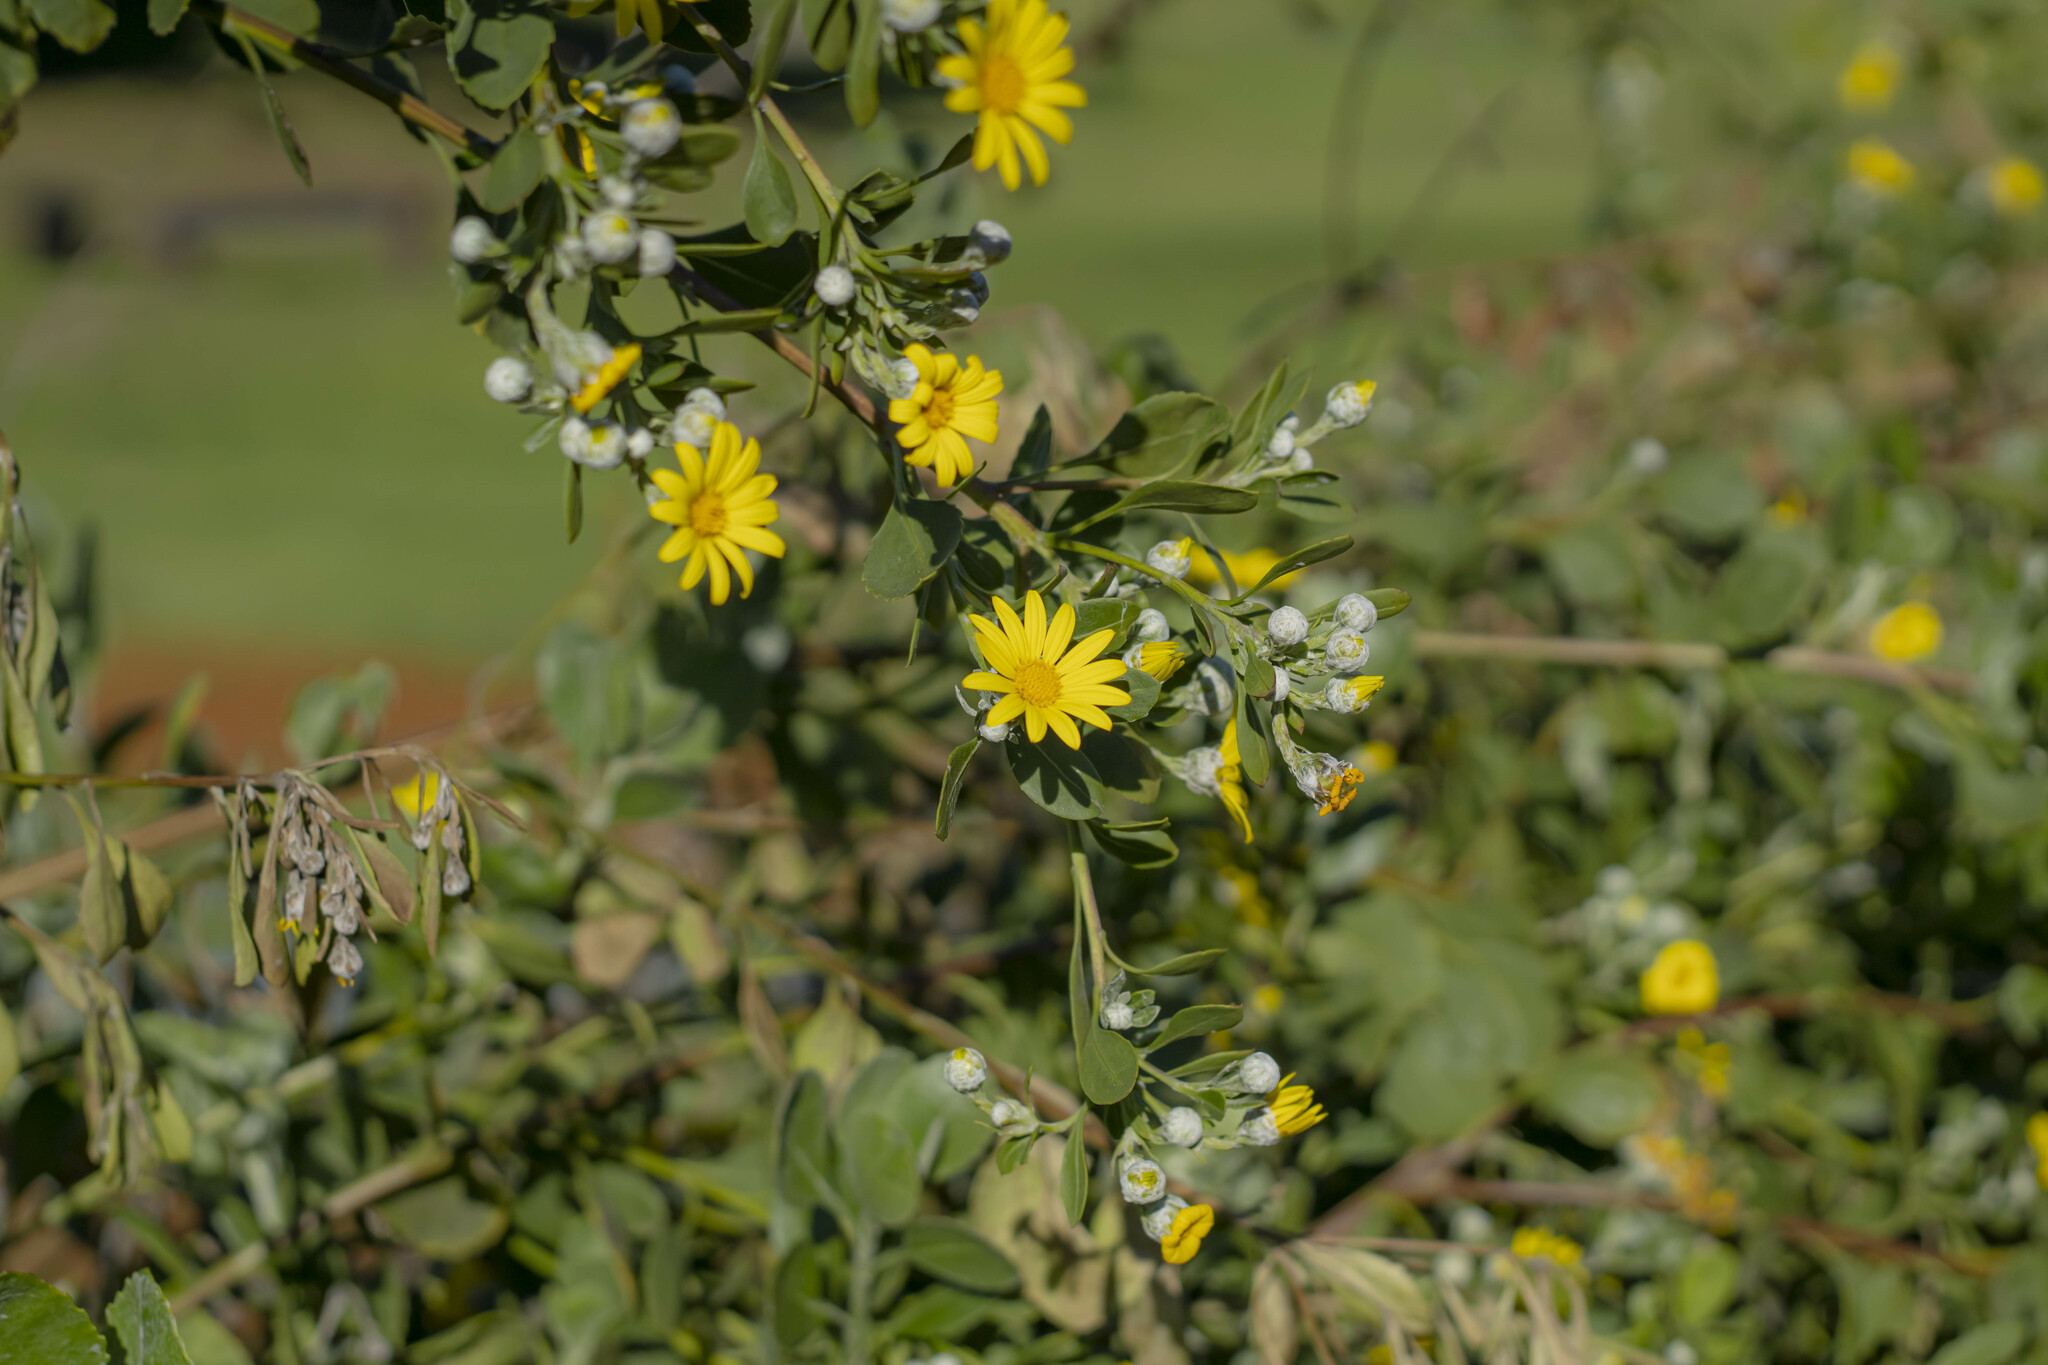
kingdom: Plantae
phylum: Tracheophyta
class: Magnoliopsida
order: Asterales
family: Asteraceae
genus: Osteospermum
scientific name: Osteospermum moniliferum
